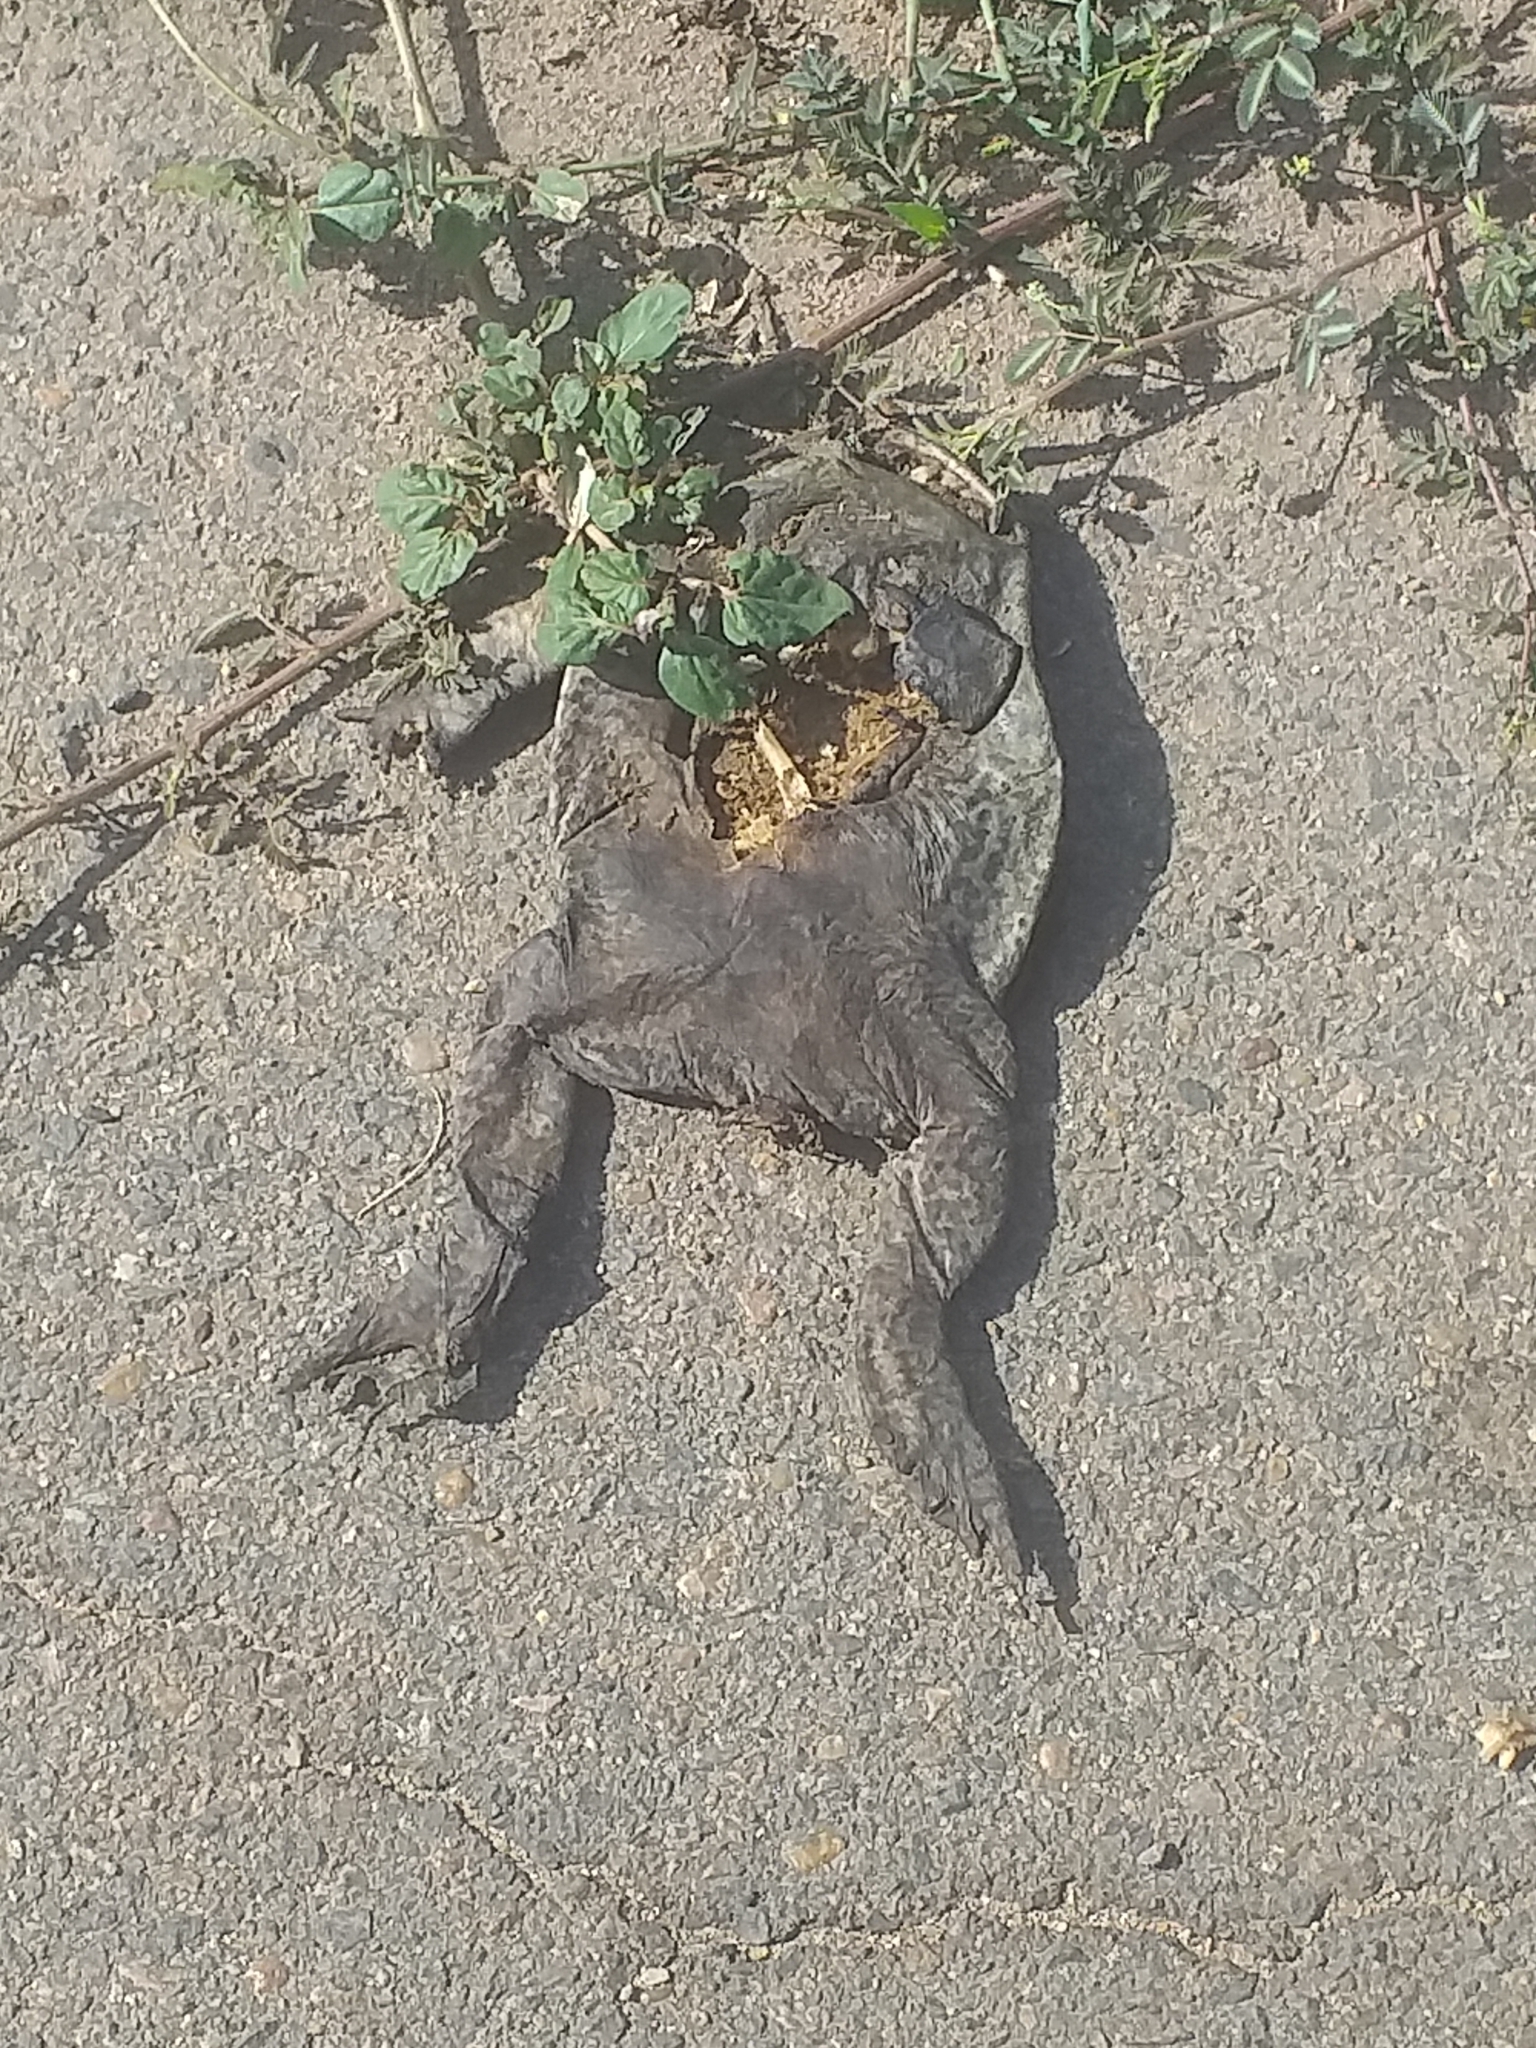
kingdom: Animalia
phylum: Chordata
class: Amphibia
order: Anura
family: Bufonidae
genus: Rhinella
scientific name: Rhinella diptycha
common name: Cope's toad
